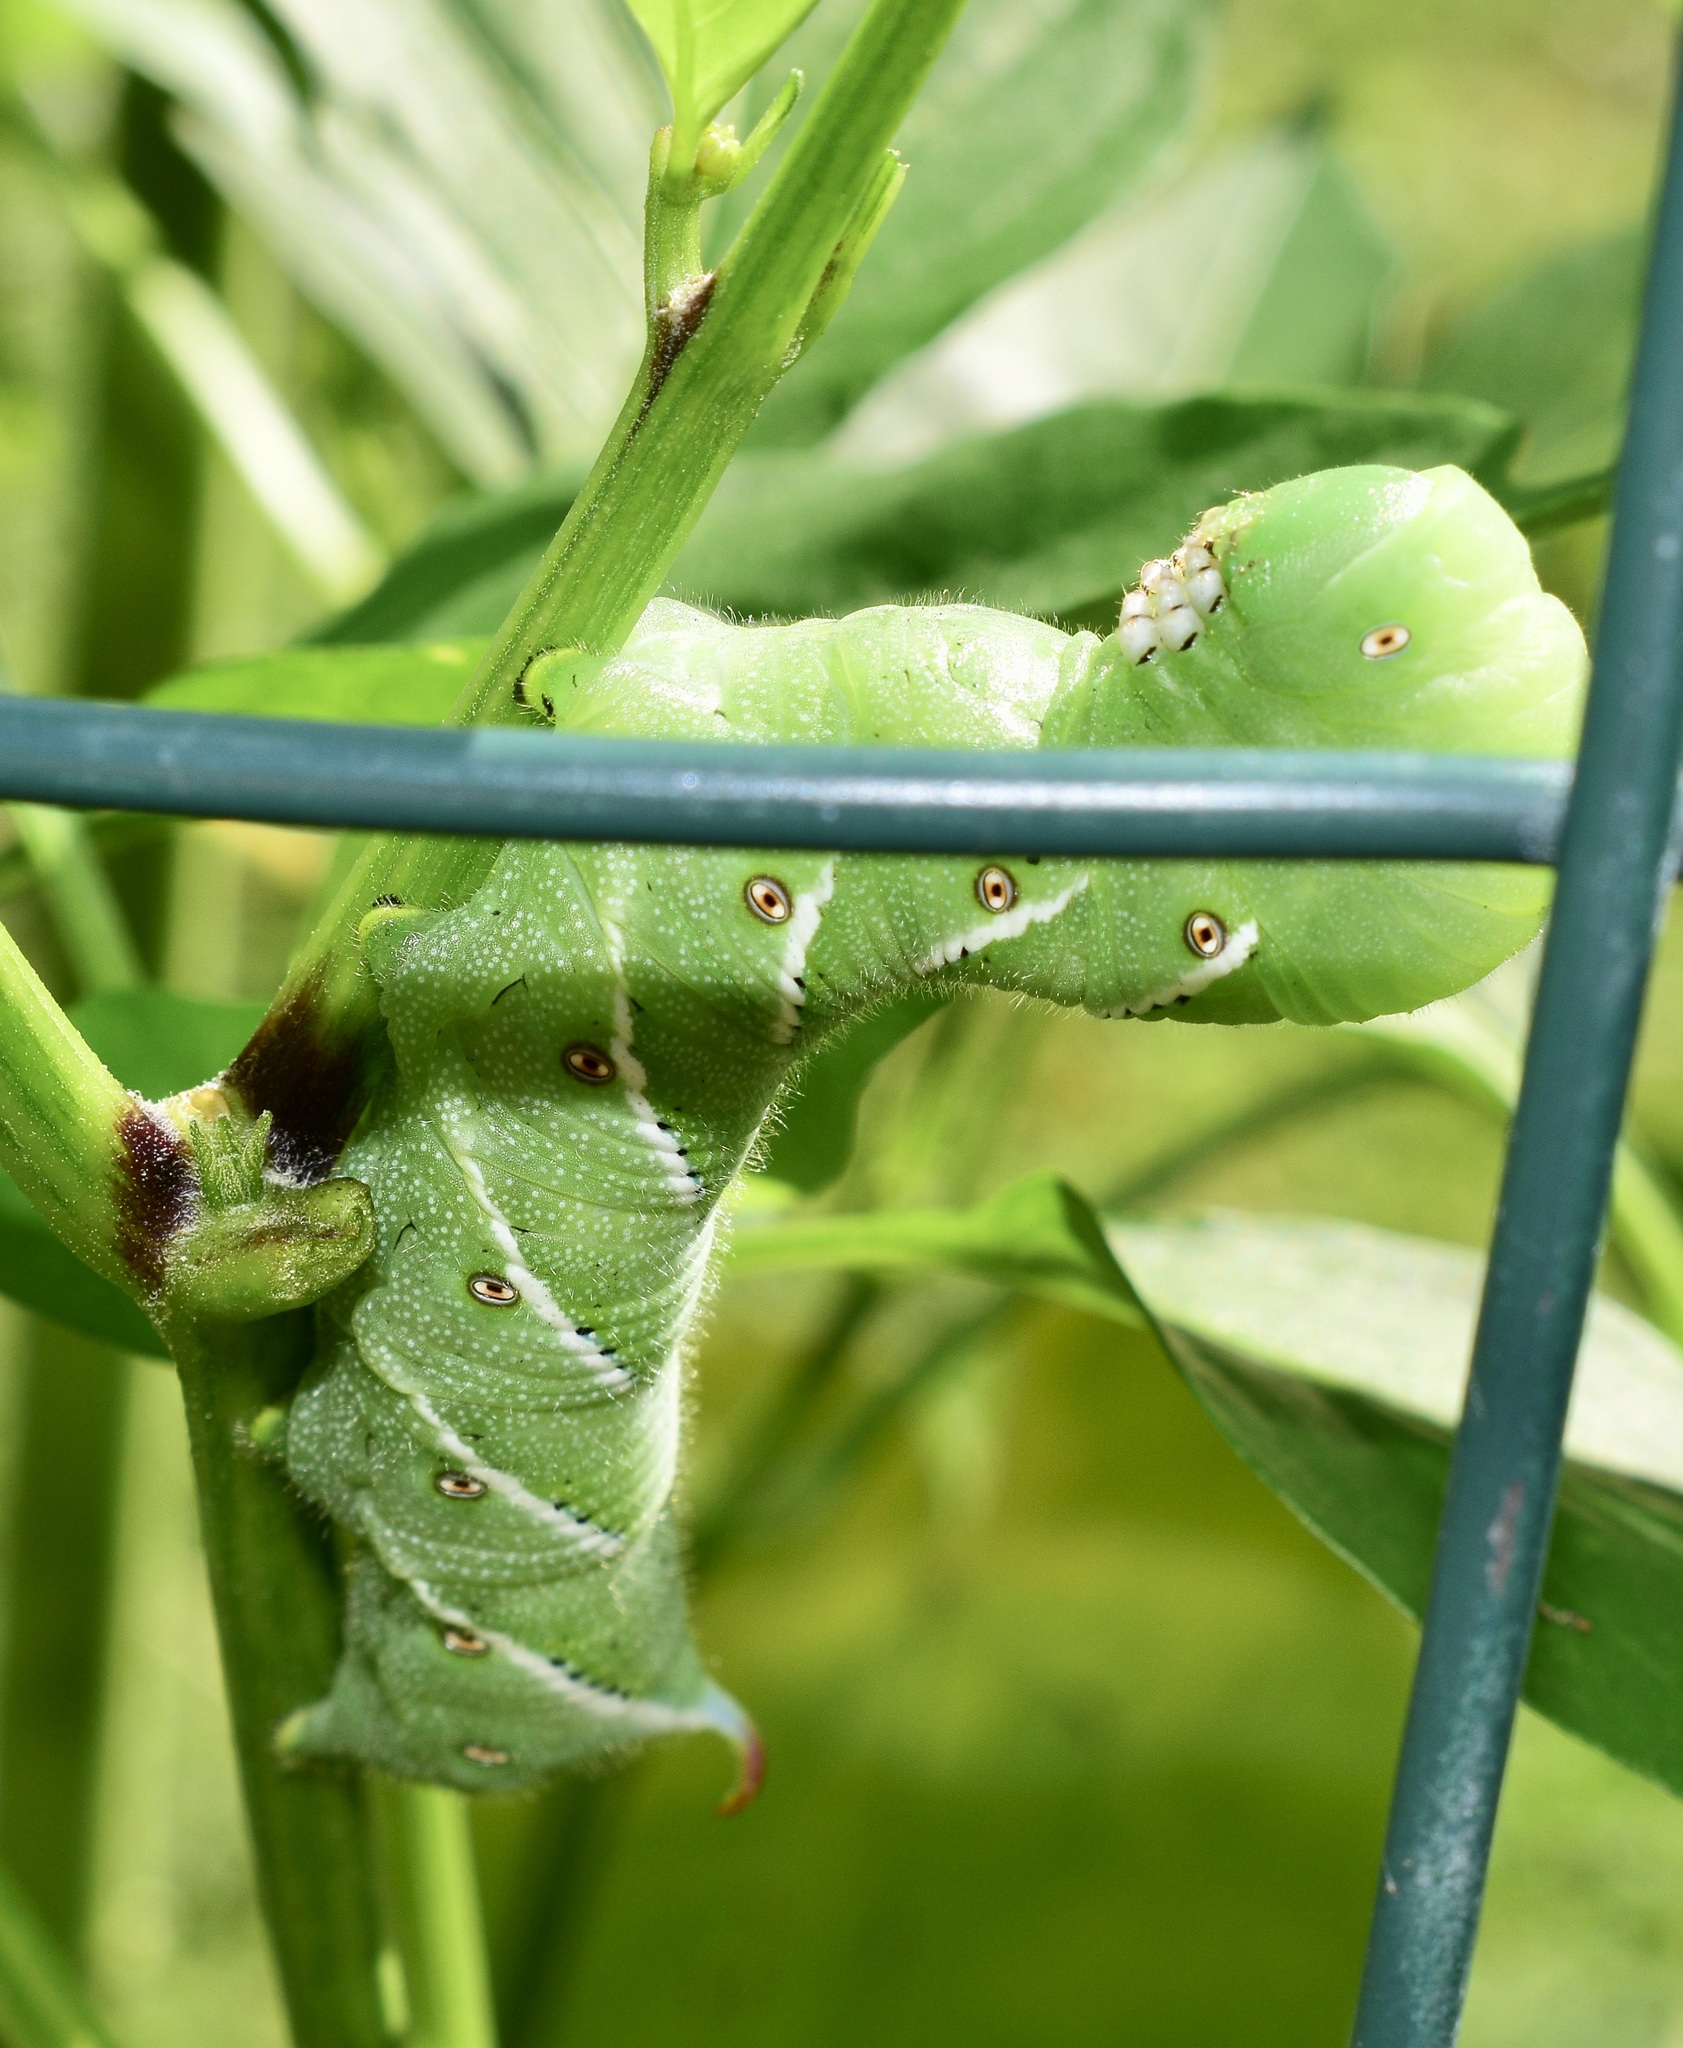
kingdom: Animalia
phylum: Arthropoda
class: Insecta
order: Lepidoptera
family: Sphingidae
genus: Manduca
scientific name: Manduca sexta
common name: Carolina sphinx
